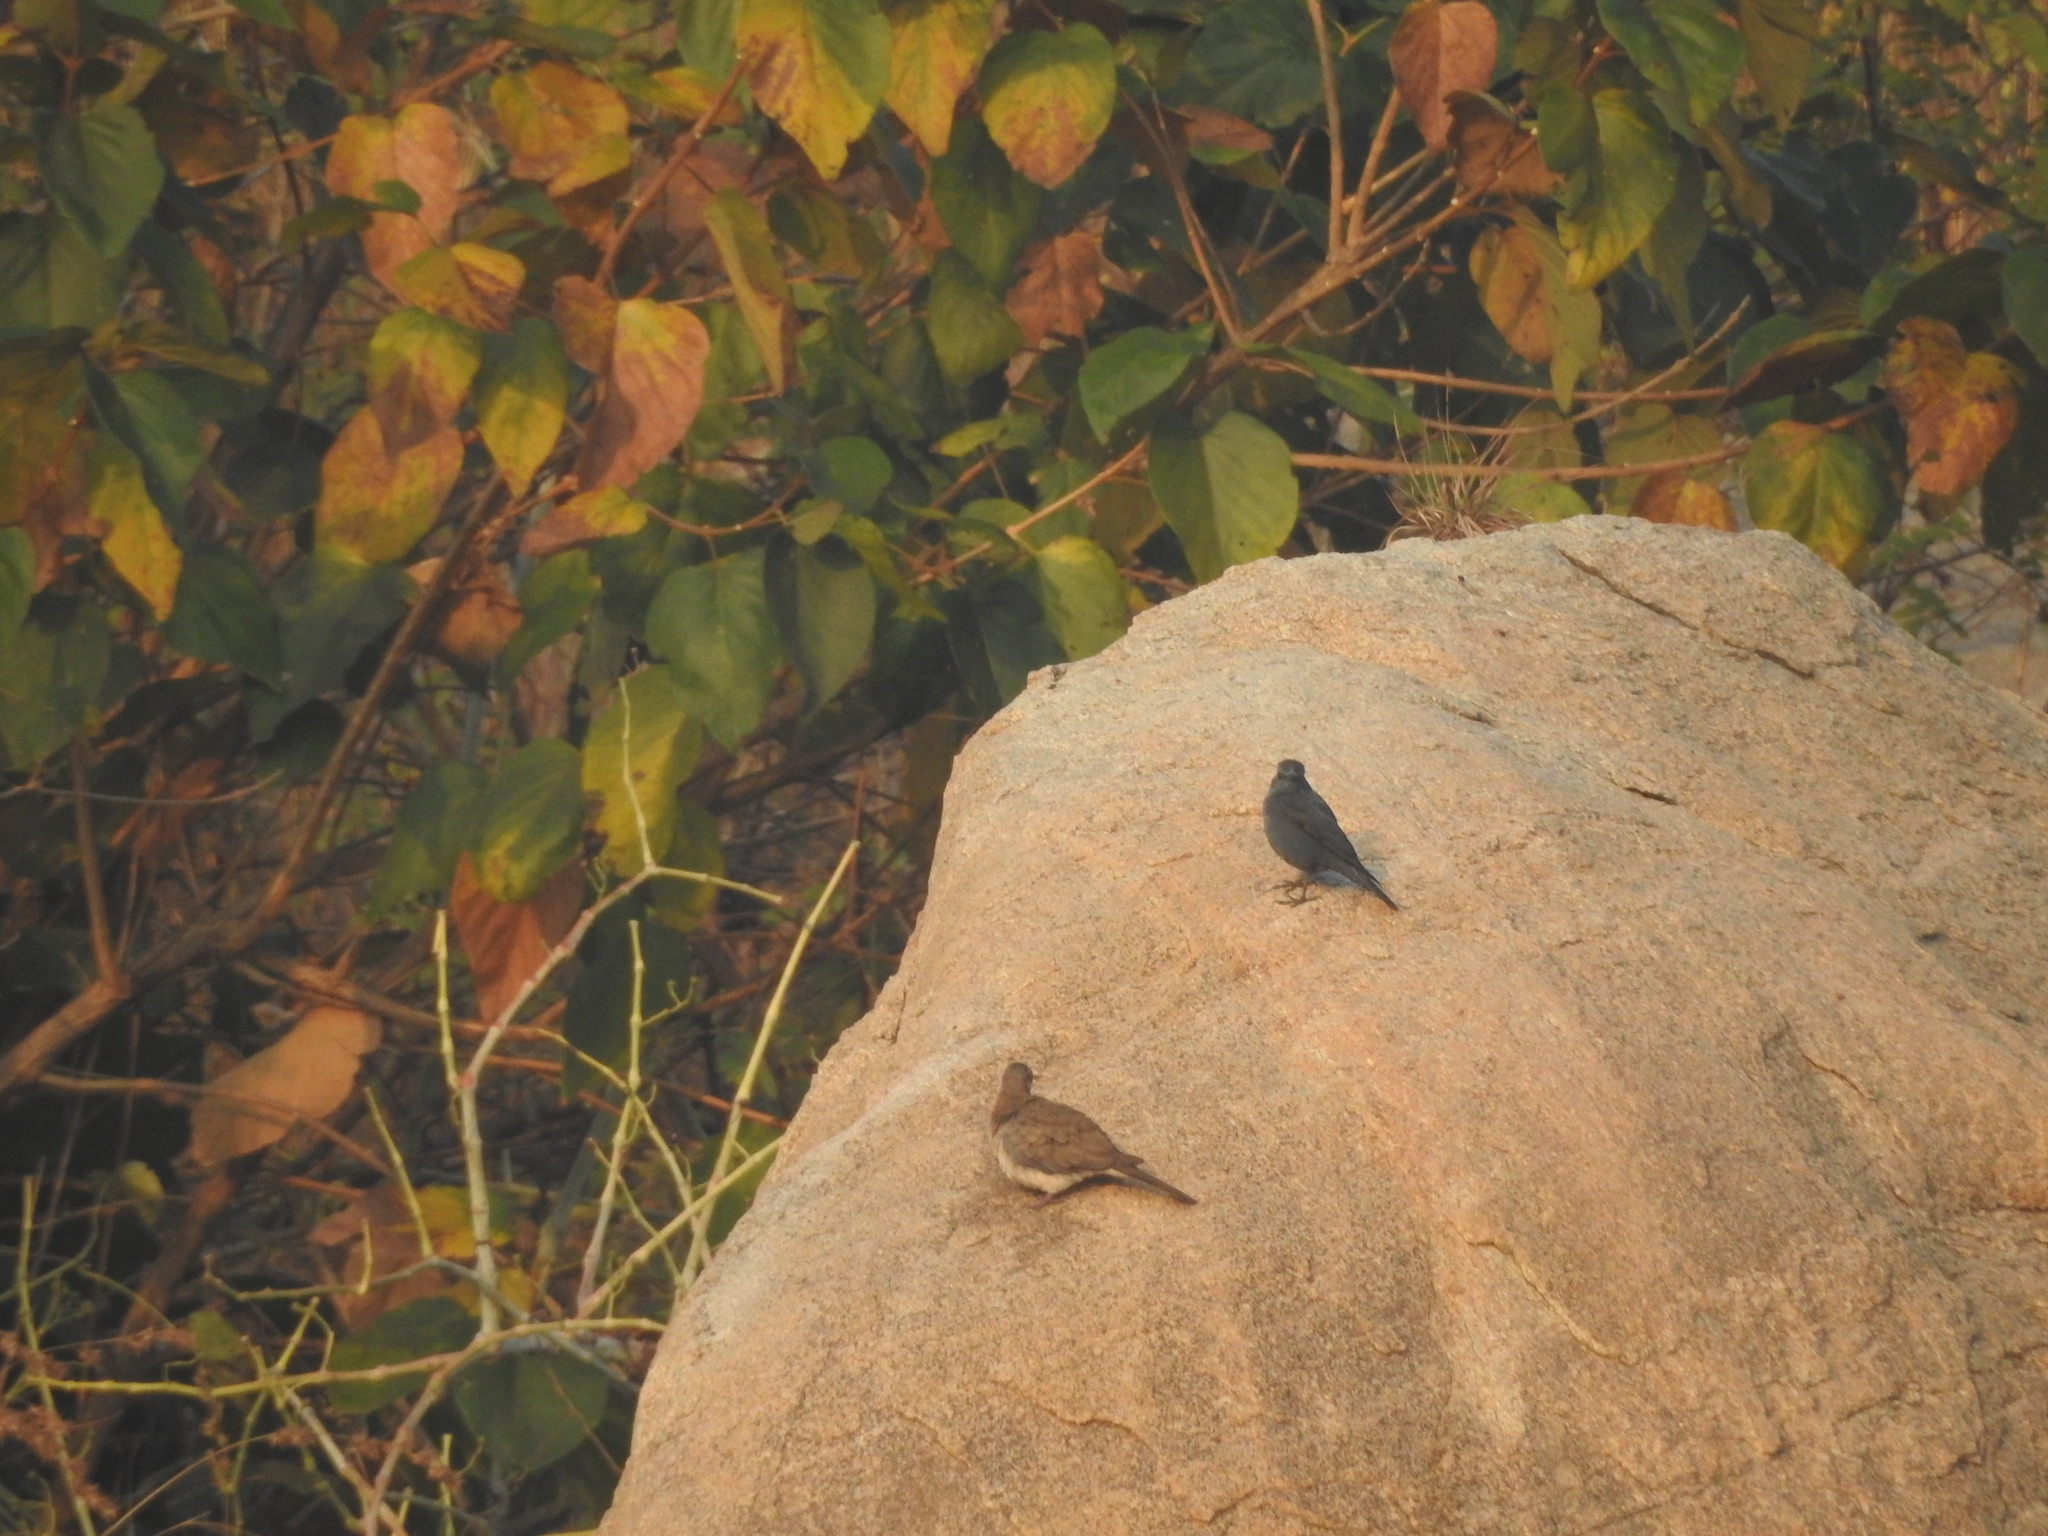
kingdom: Animalia
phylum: Chordata
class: Aves
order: Passeriformes
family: Muscicapidae
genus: Monticola
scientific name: Monticola solitarius
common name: Blue rock thrush
